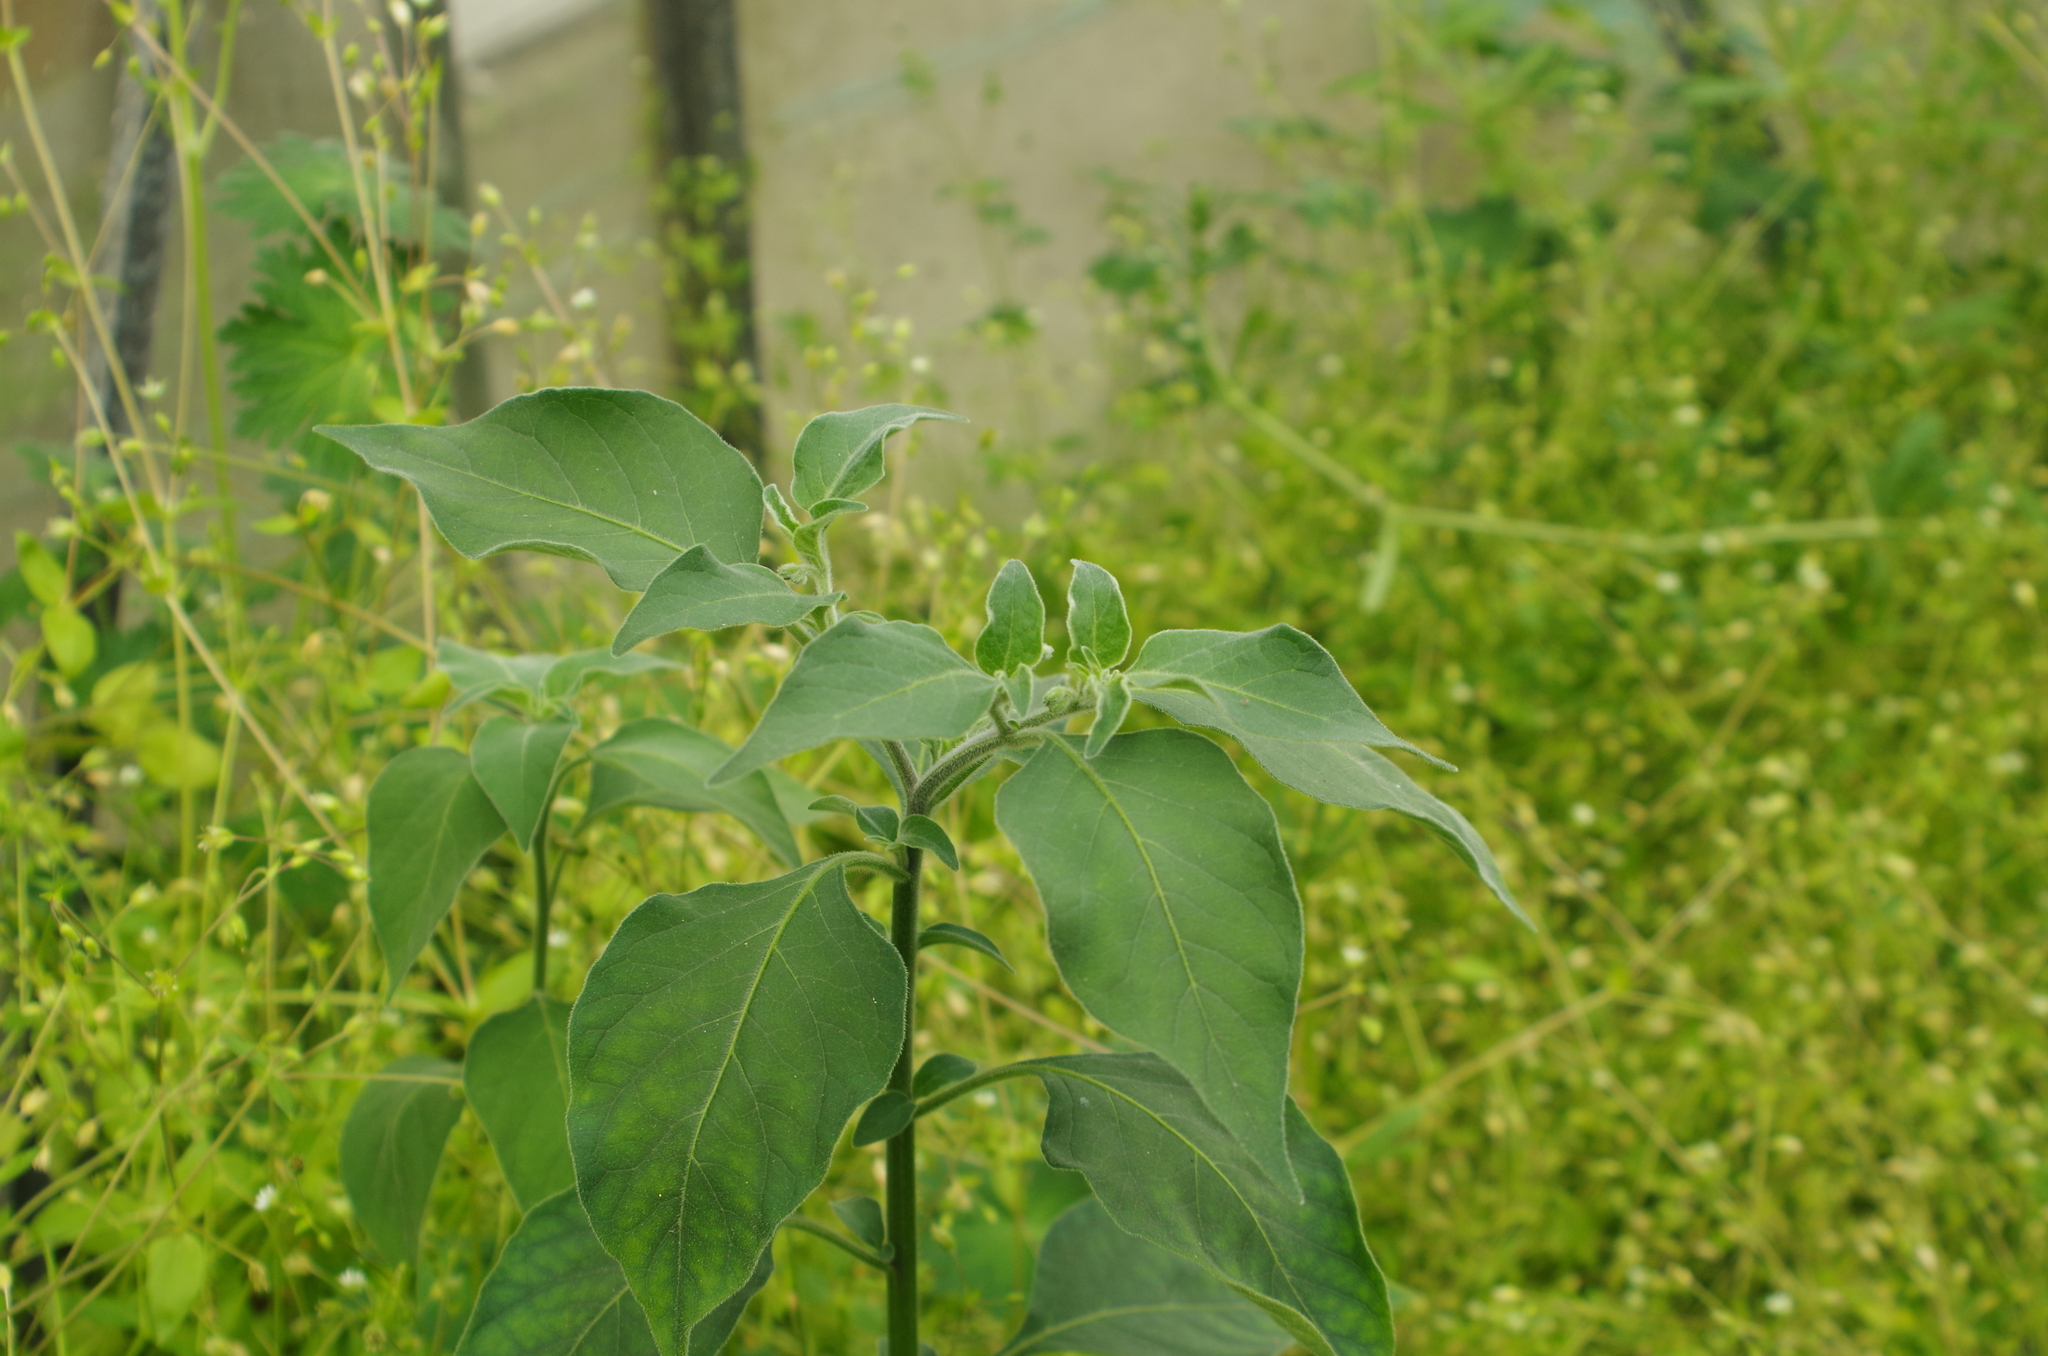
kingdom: Plantae
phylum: Tracheophyta
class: Magnoliopsida
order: Solanales
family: Solanaceae
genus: Solanum
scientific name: Solanum chenopodioides
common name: Tall nightshade
